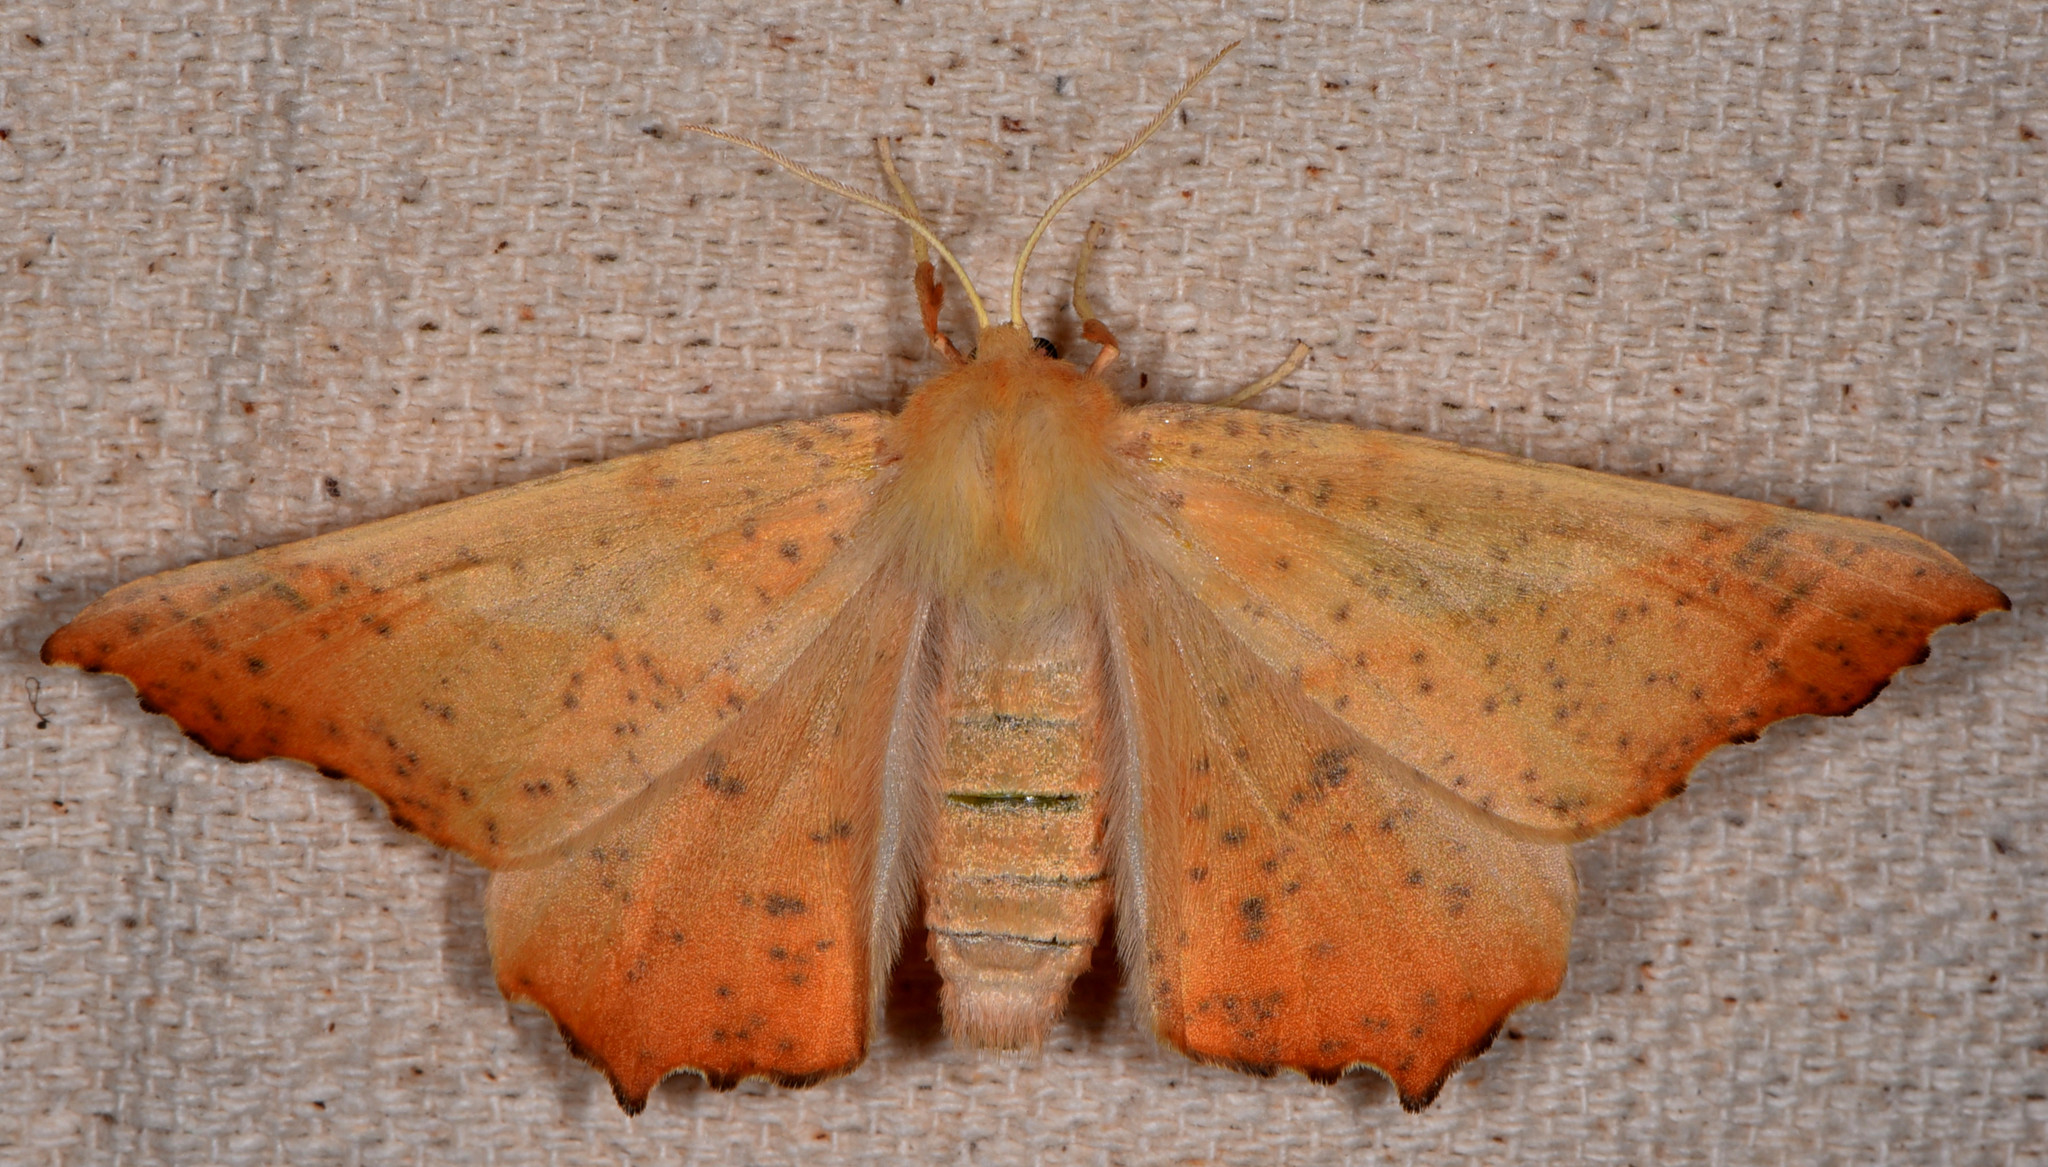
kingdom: Animalia
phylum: Arthropoda
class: Insecta
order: Lepidoptera
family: Geometridae
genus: Ennomos
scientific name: Ennomos magnaria
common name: Maple spanworm
